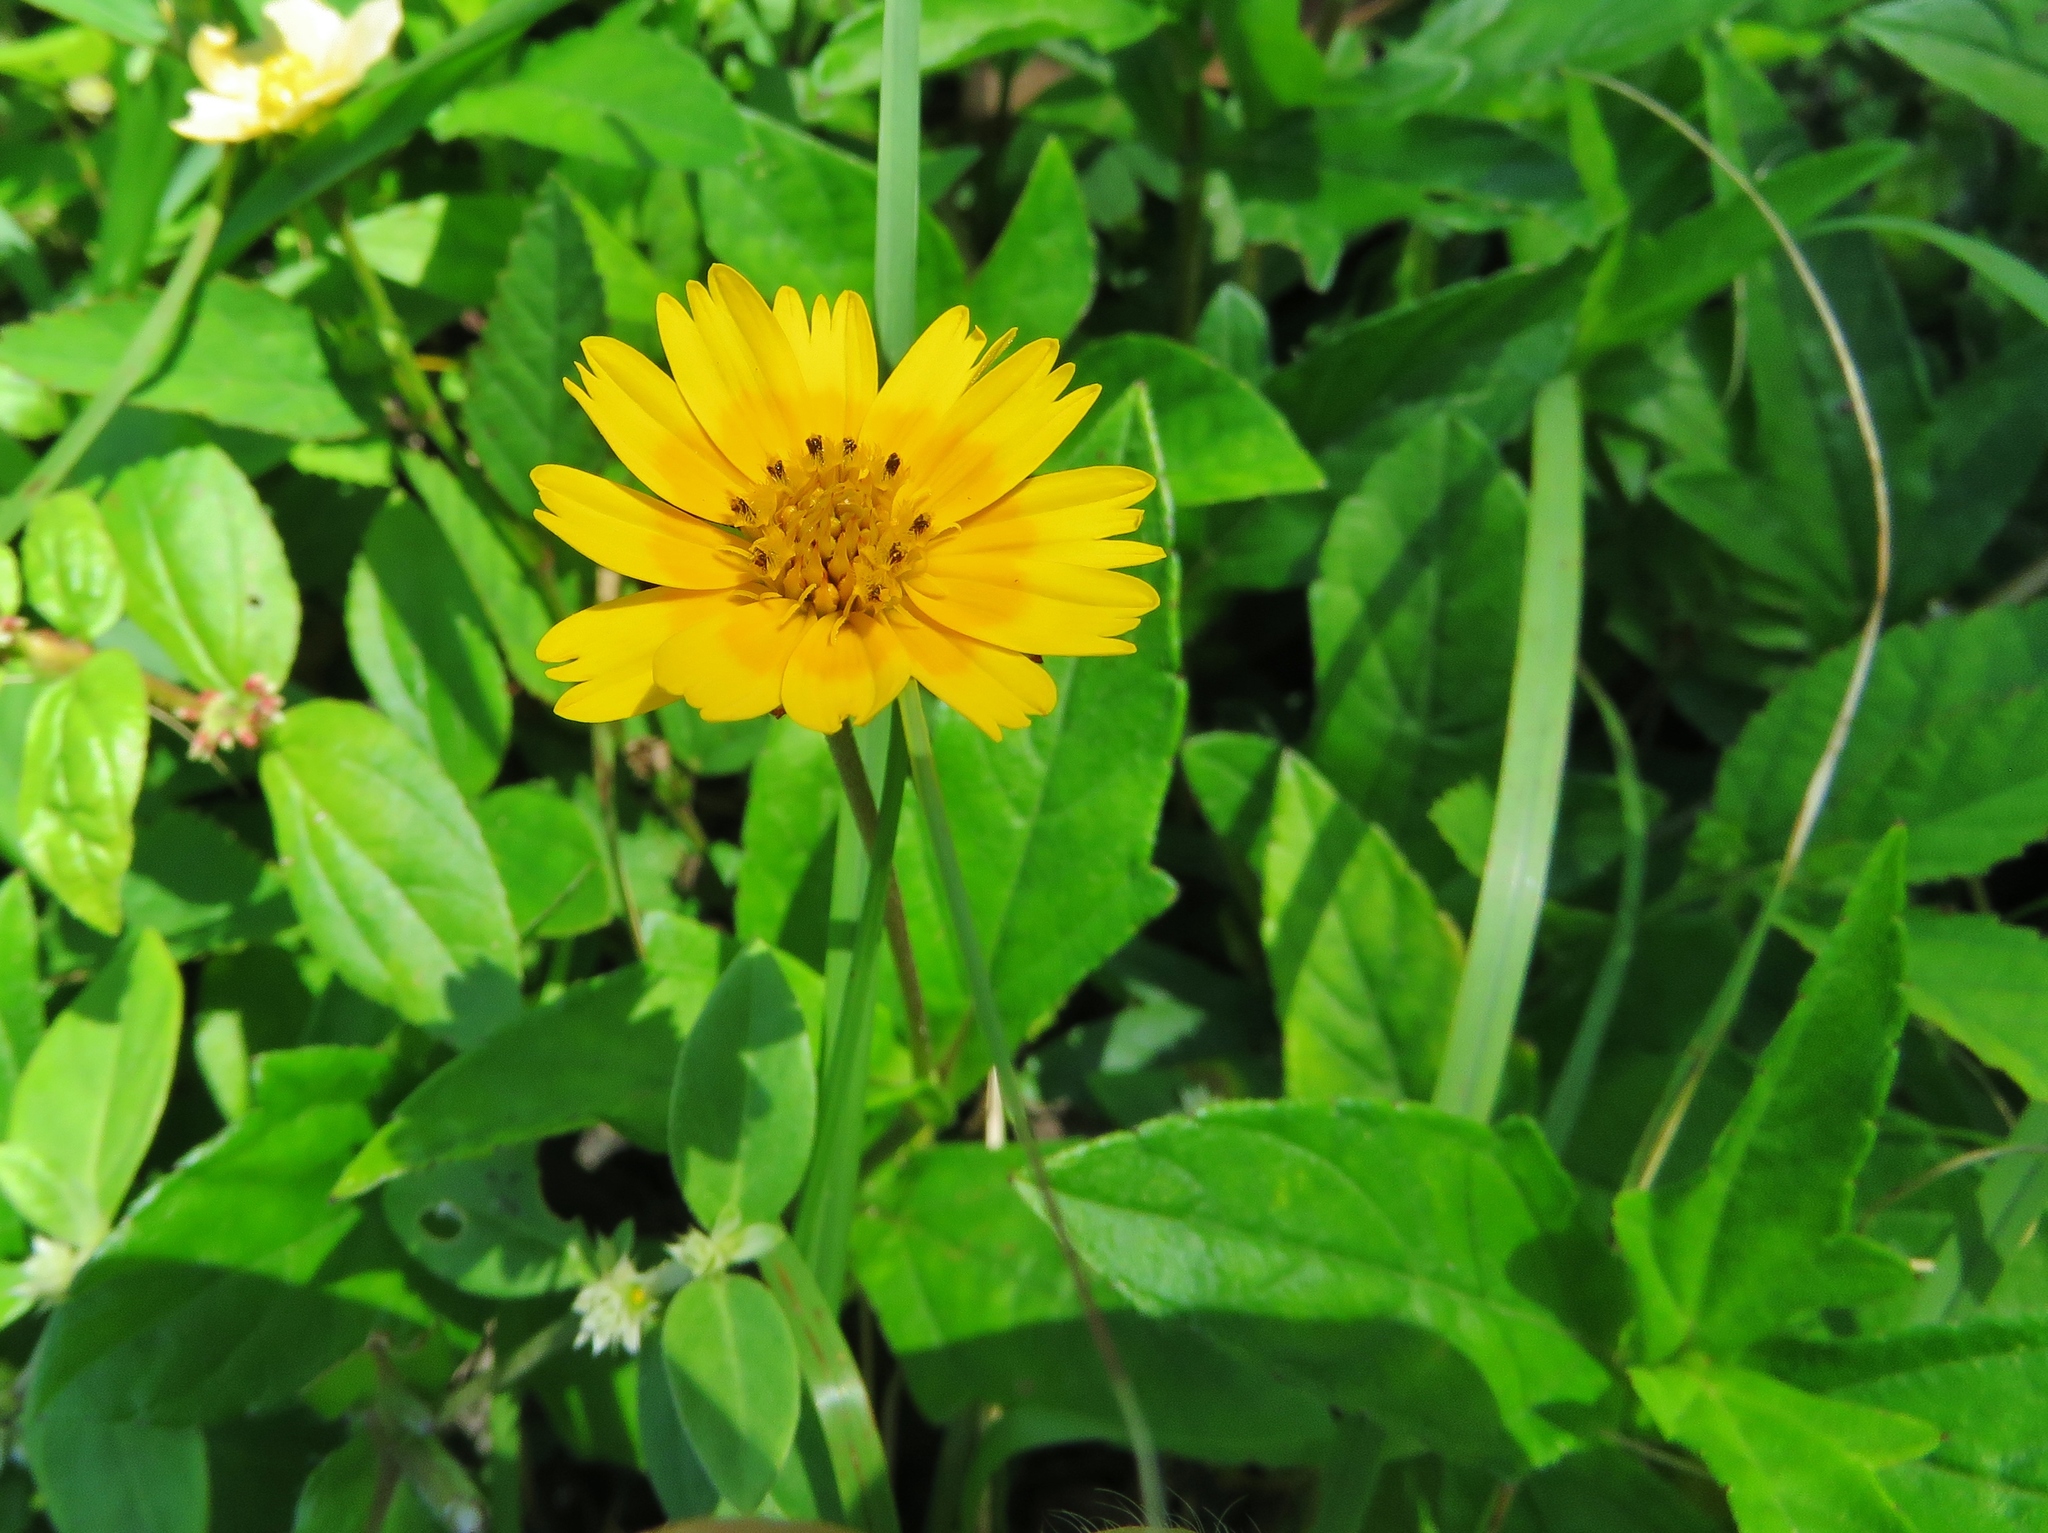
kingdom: Plantae
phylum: Tracheophyta
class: Magnoliopsida
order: Asterales
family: Asteraceae
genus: Sphagneticola
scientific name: Sphagneticola trilobata
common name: Bay biscayne creeping-oxeye
